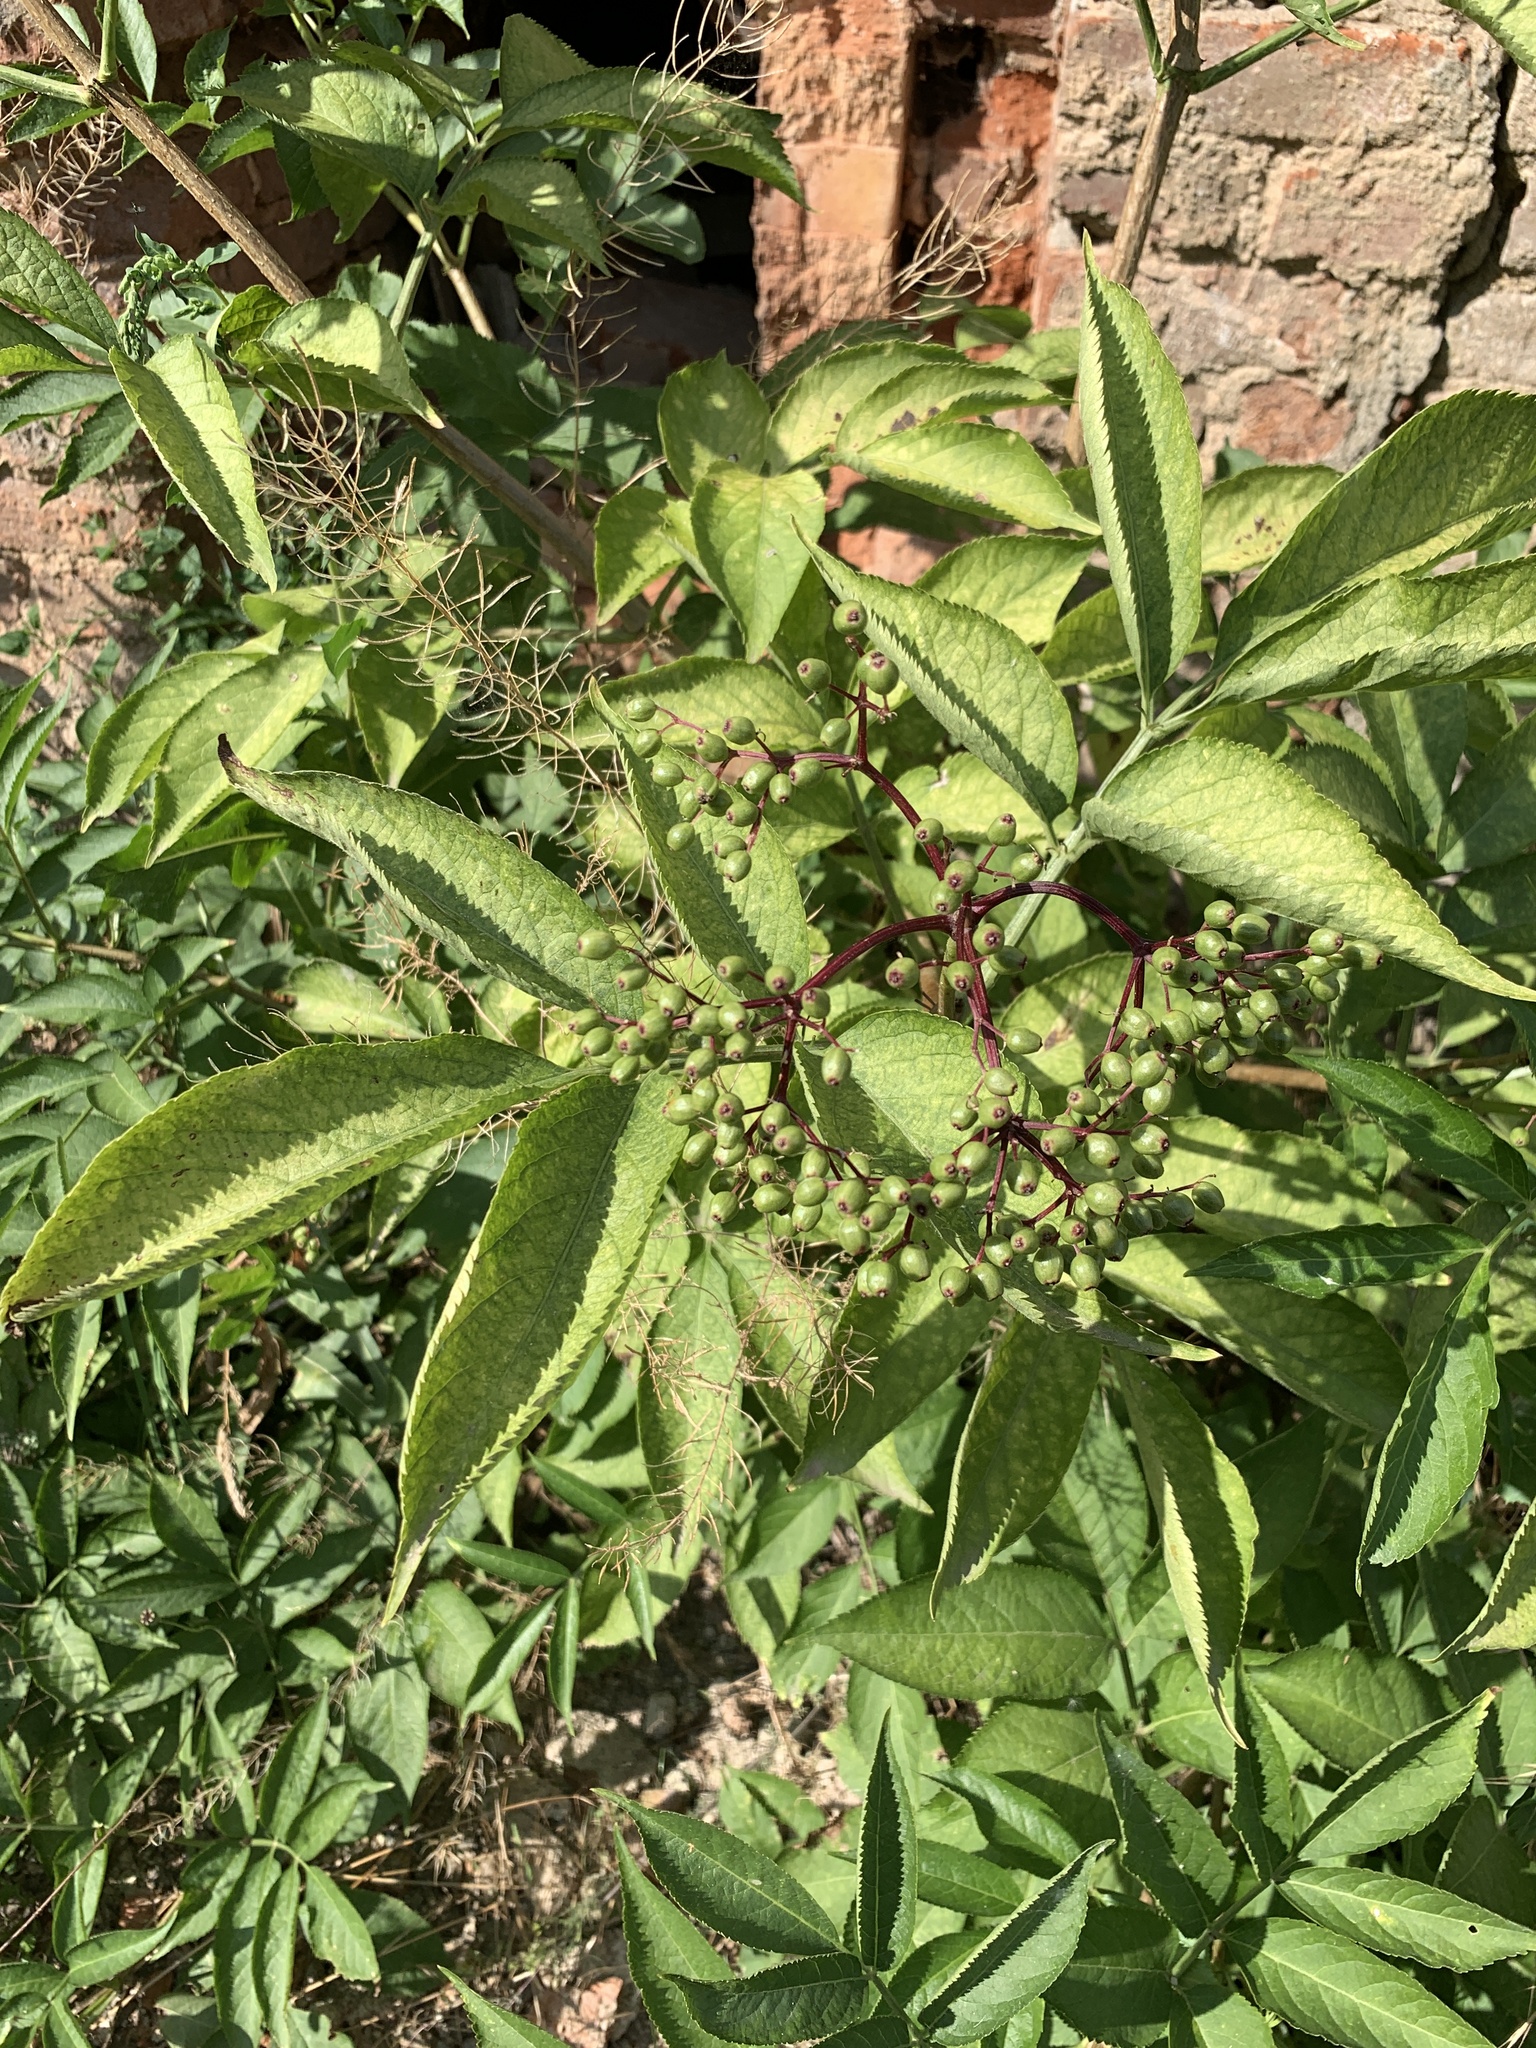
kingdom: Plantae
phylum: Tracheophyta
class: Magnoliopsida
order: Dipsacales
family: Viburnaceae
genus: Sambucus
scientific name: Sambucus nigra
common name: Elder
